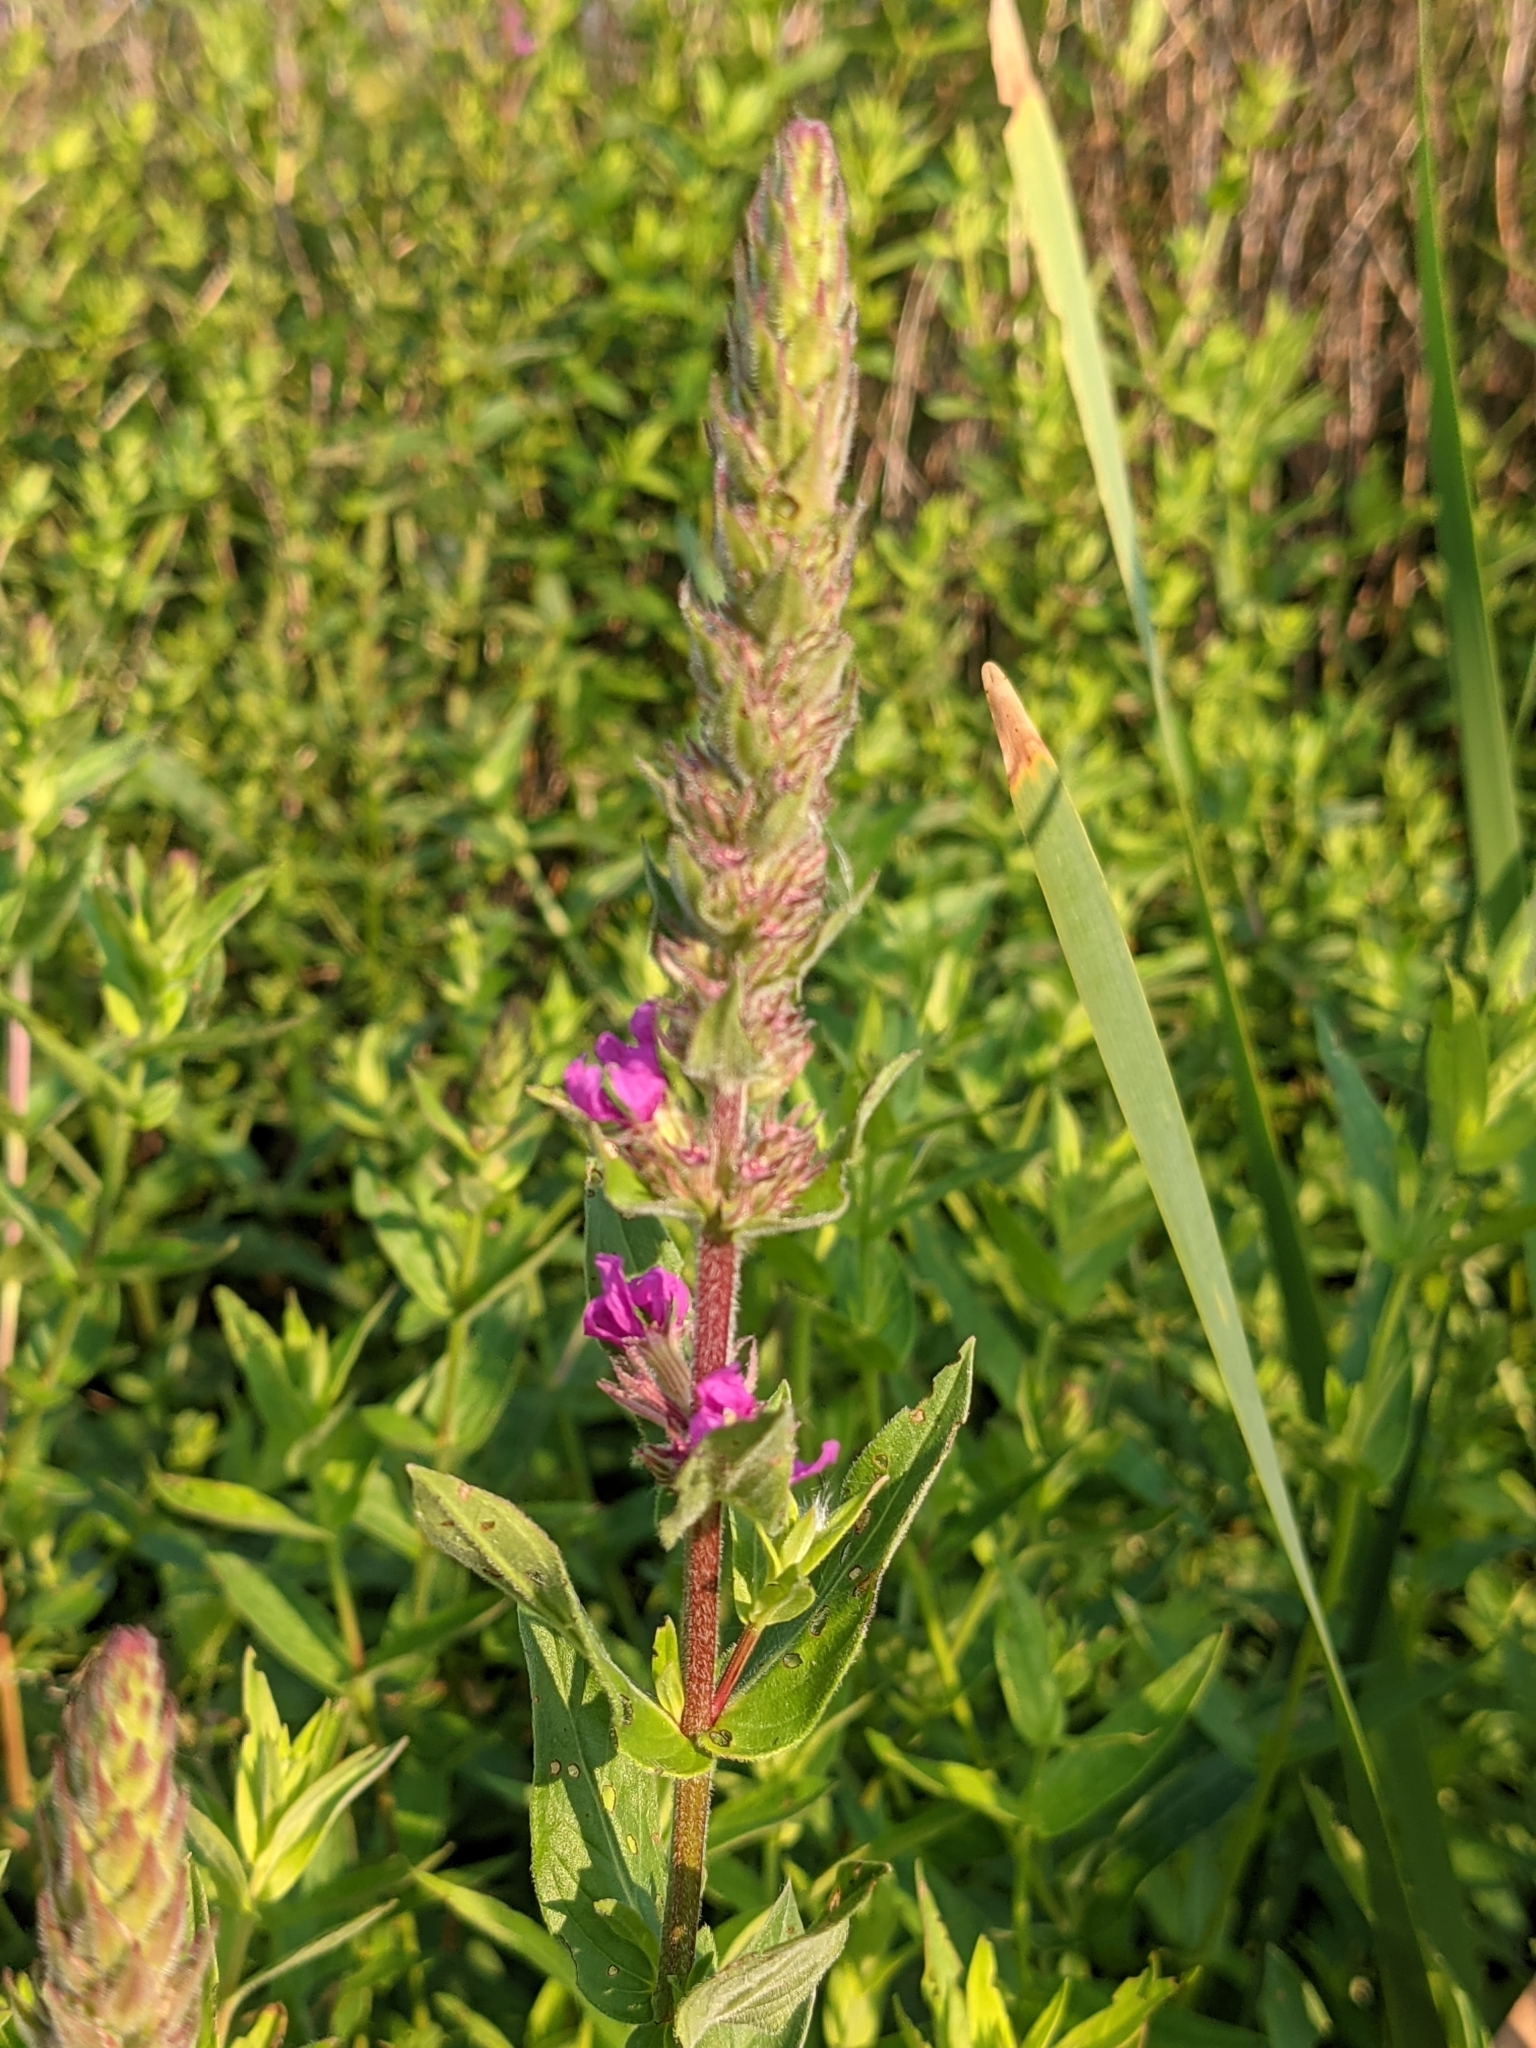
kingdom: Plantae
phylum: Tracheophyta
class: Magnoliopsida
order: Myrtales
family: Lythraceae
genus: Lythrum
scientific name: Lythrum salicaria
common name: Purple loosestrife
